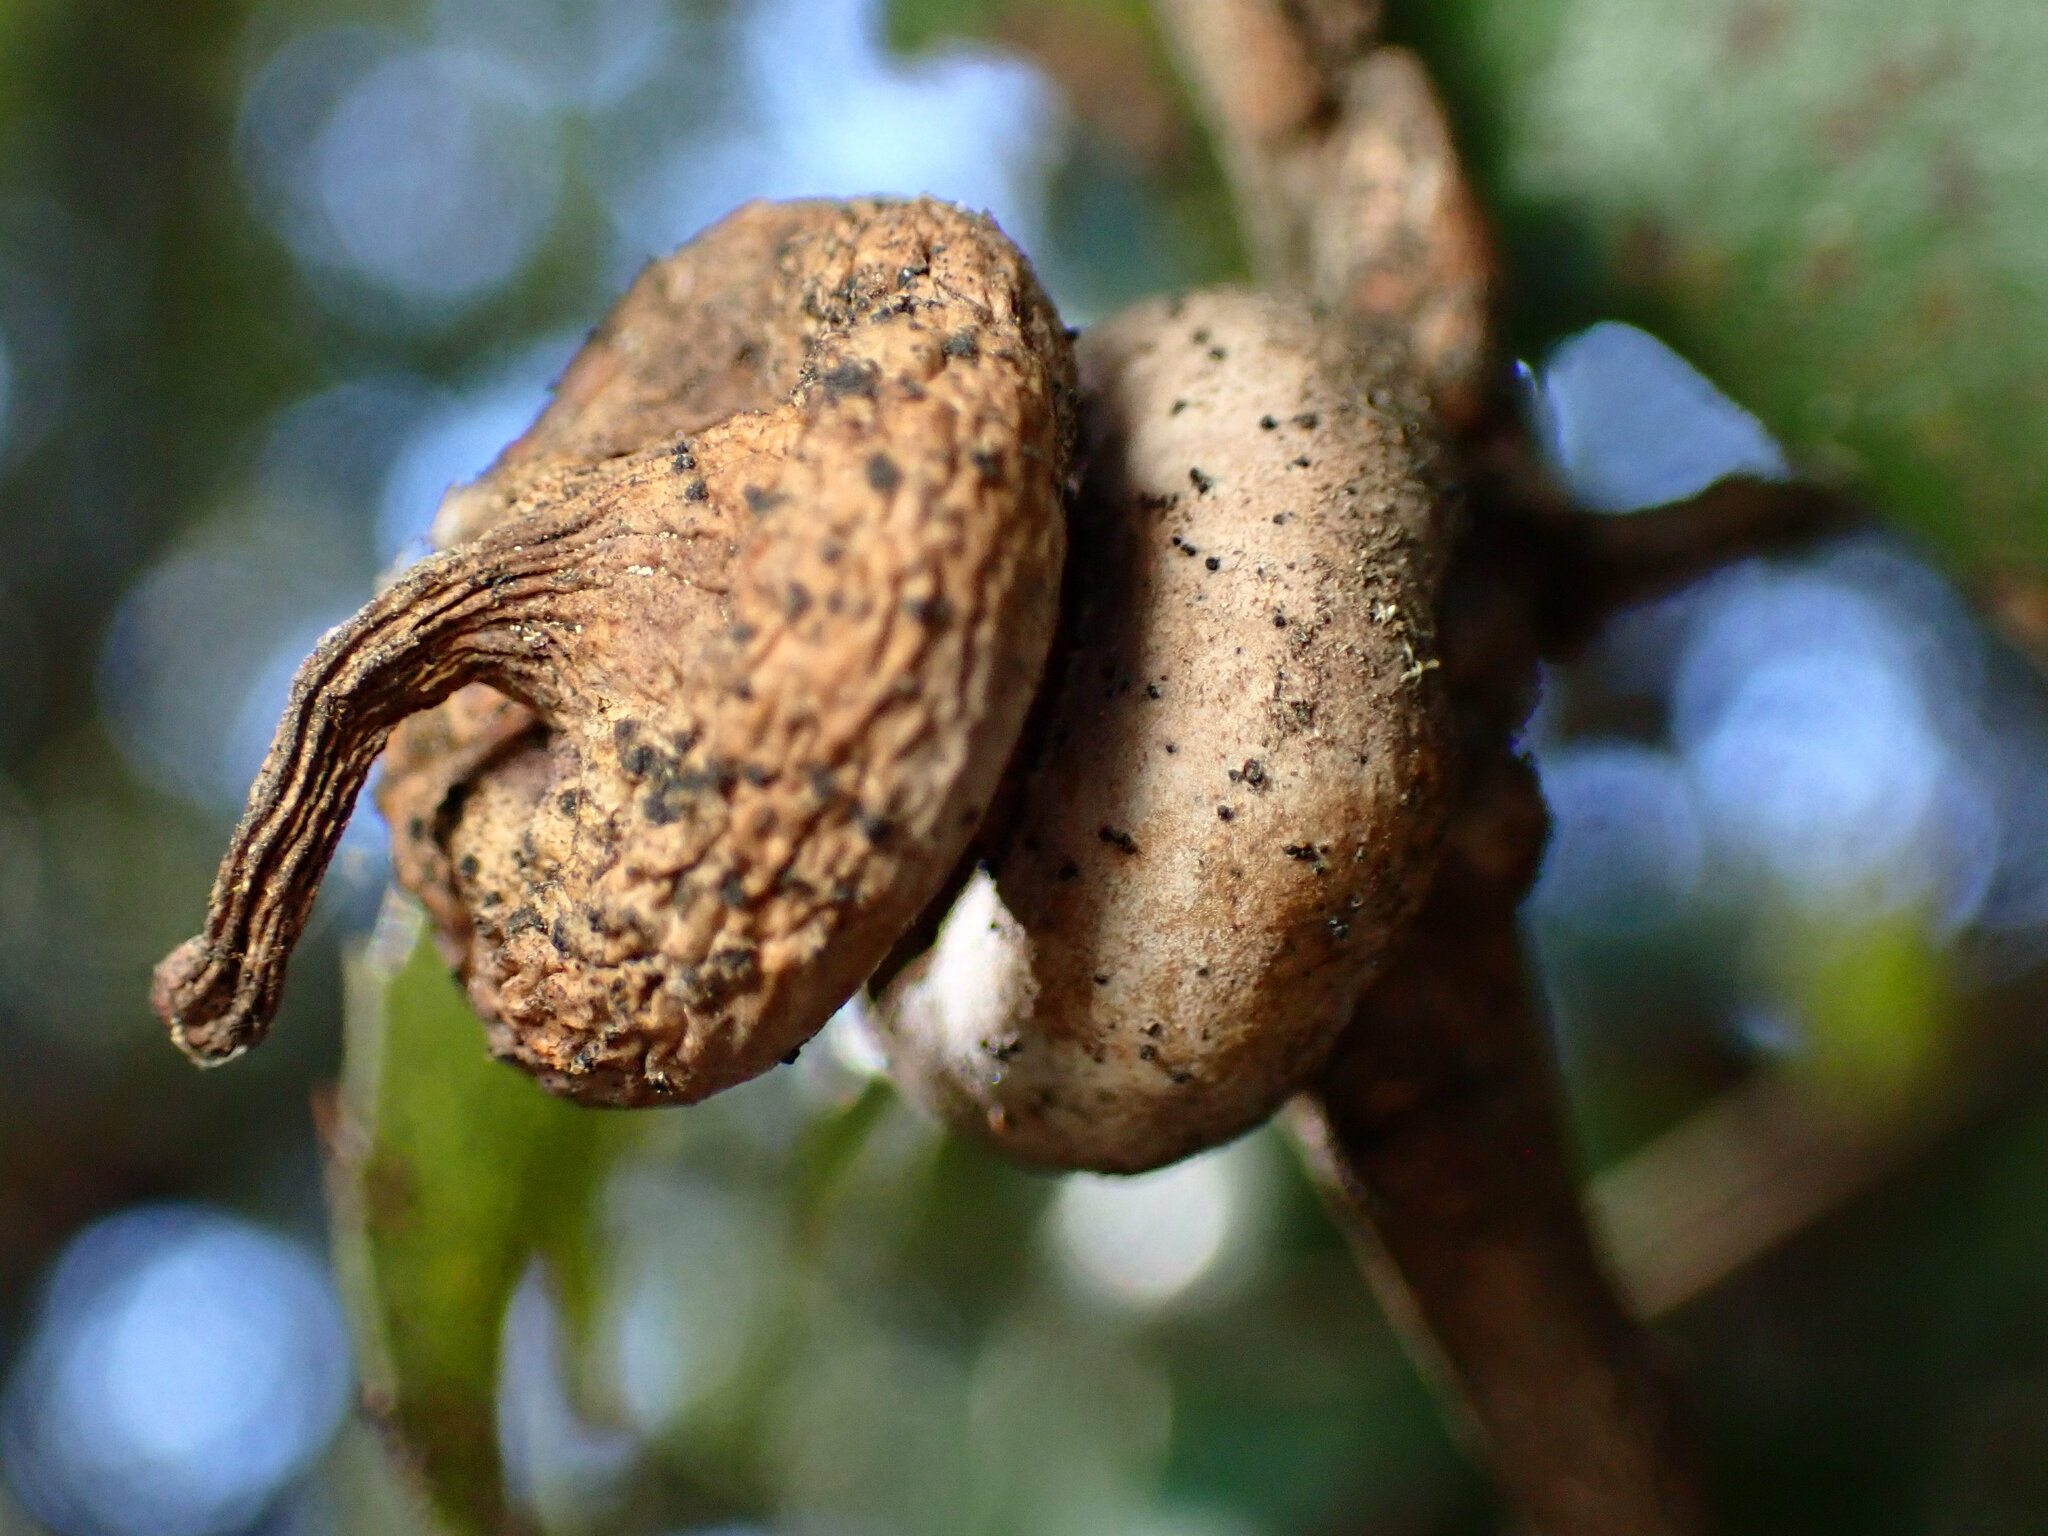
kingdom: Animalia
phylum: Arthropoda
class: Insecta
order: Hymenoptera
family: Cynipidae
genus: Heteroecus
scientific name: Heteroecus
